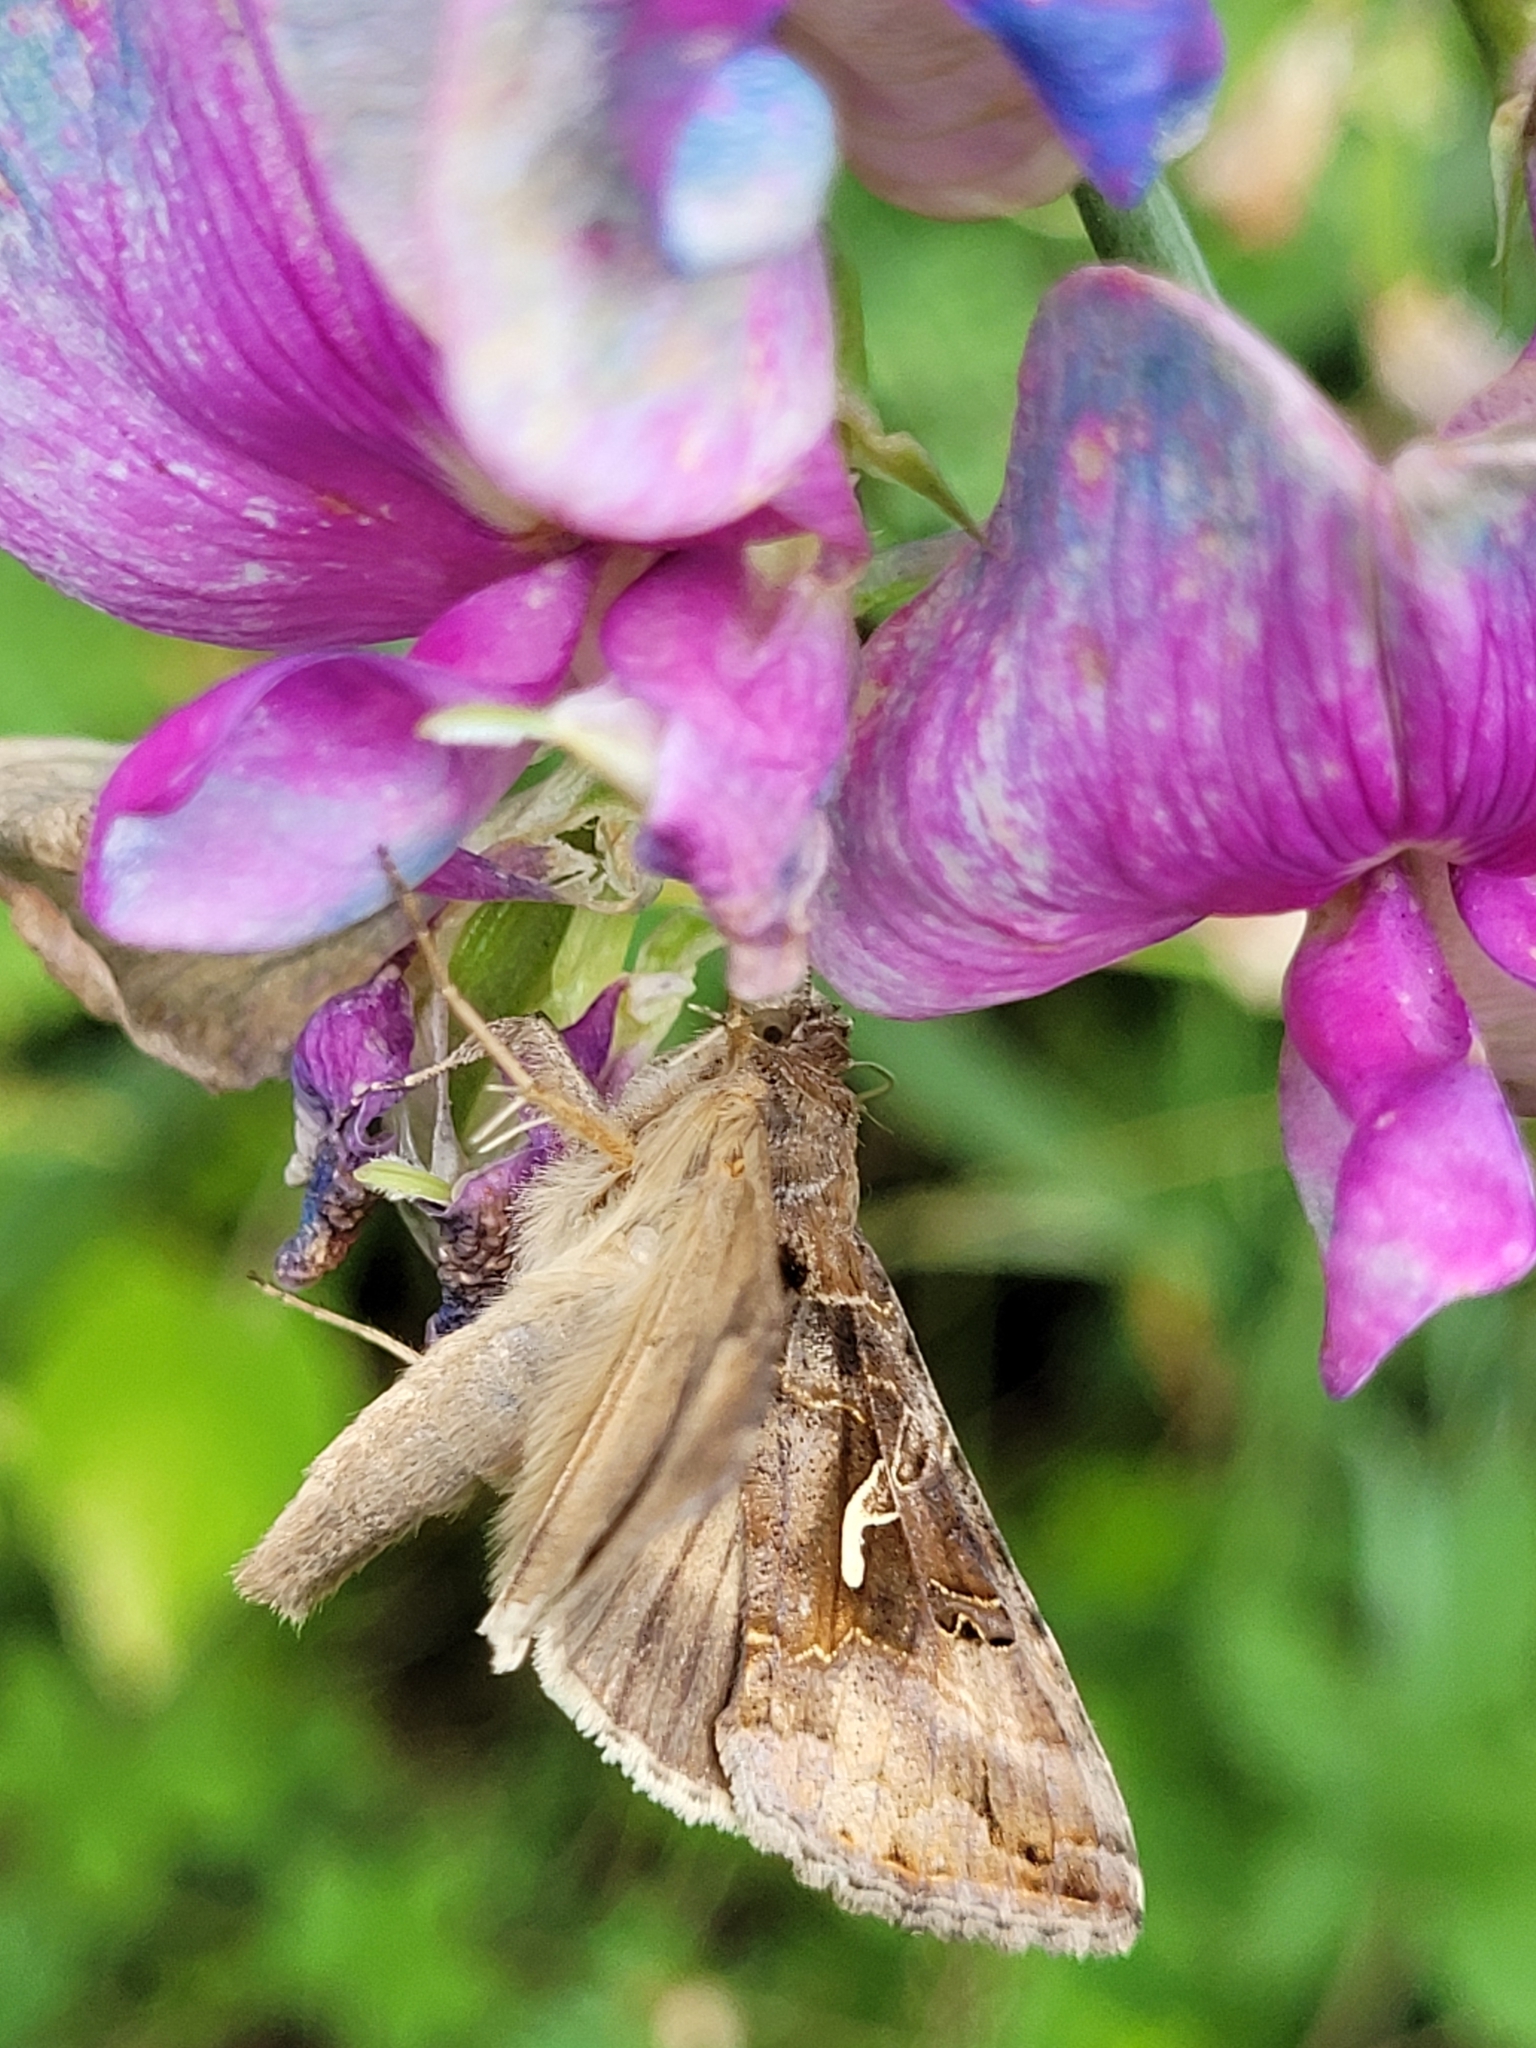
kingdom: Animalia
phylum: Arthropoda
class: Insecta
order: Lepidoptera
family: Noctuidae
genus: Autographa
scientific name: Autographa gamma
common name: Silver y
